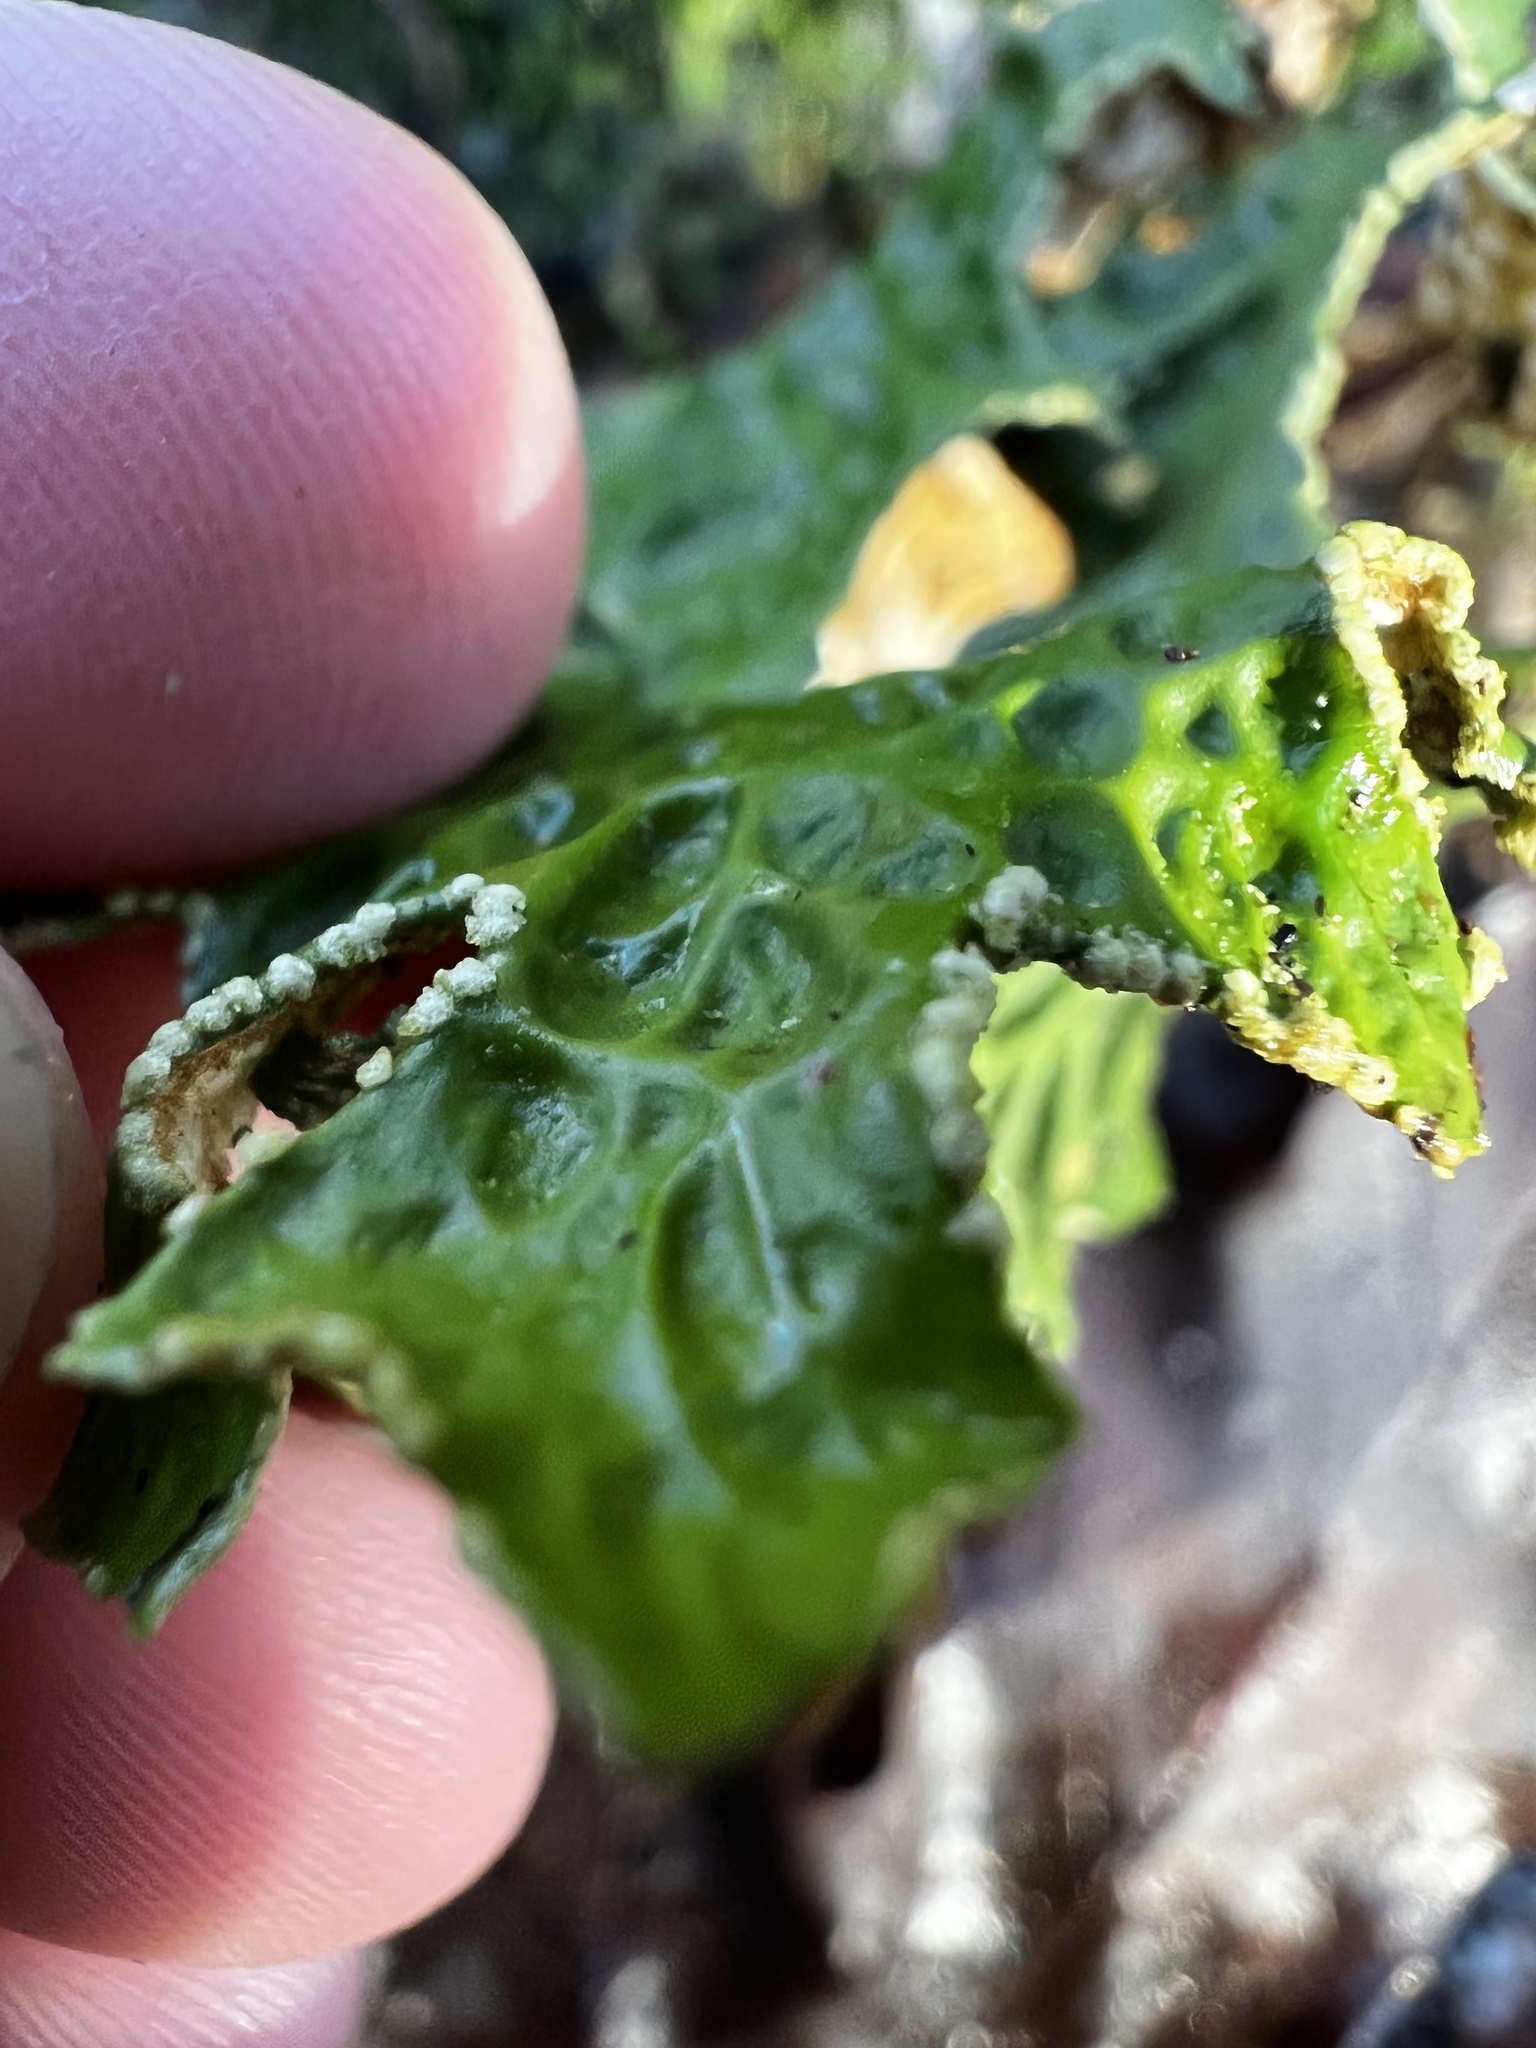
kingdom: Fungi
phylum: Ascomycota
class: Lecanoromycetes
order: Peltigerales
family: Lobariaceae
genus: Lobaria
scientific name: Lobaria pulmonaria
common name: Lungwort
